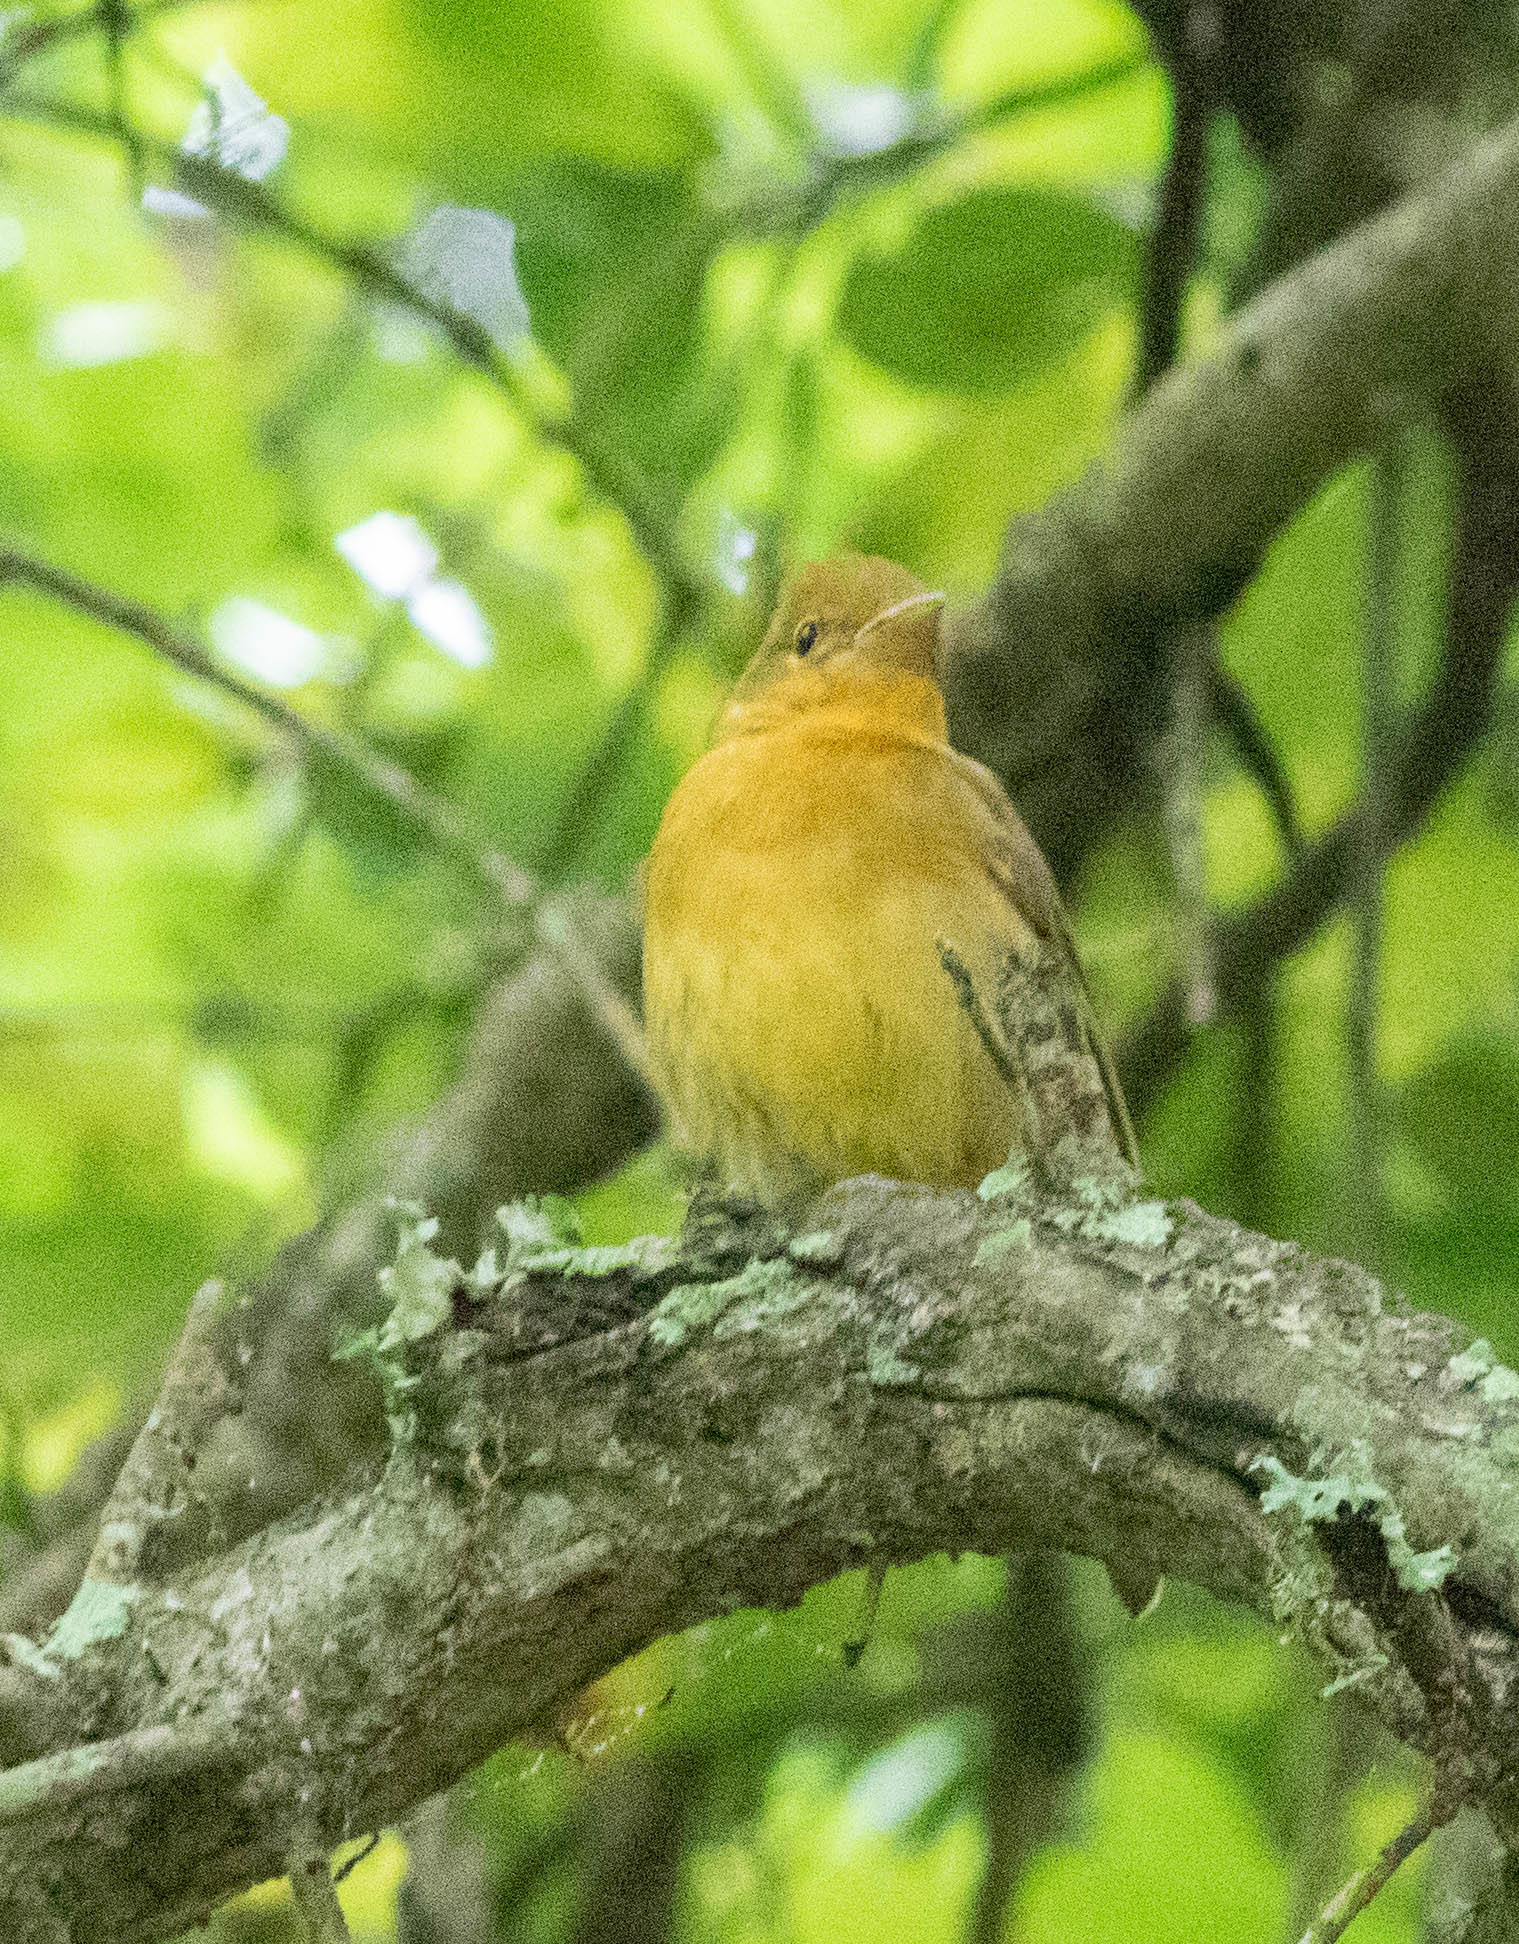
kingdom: Animalia
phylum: Chordata
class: Aves
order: Passeriformes
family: Cardinalidae
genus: Piranga
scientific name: Piranga rubra
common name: Summer tanager
